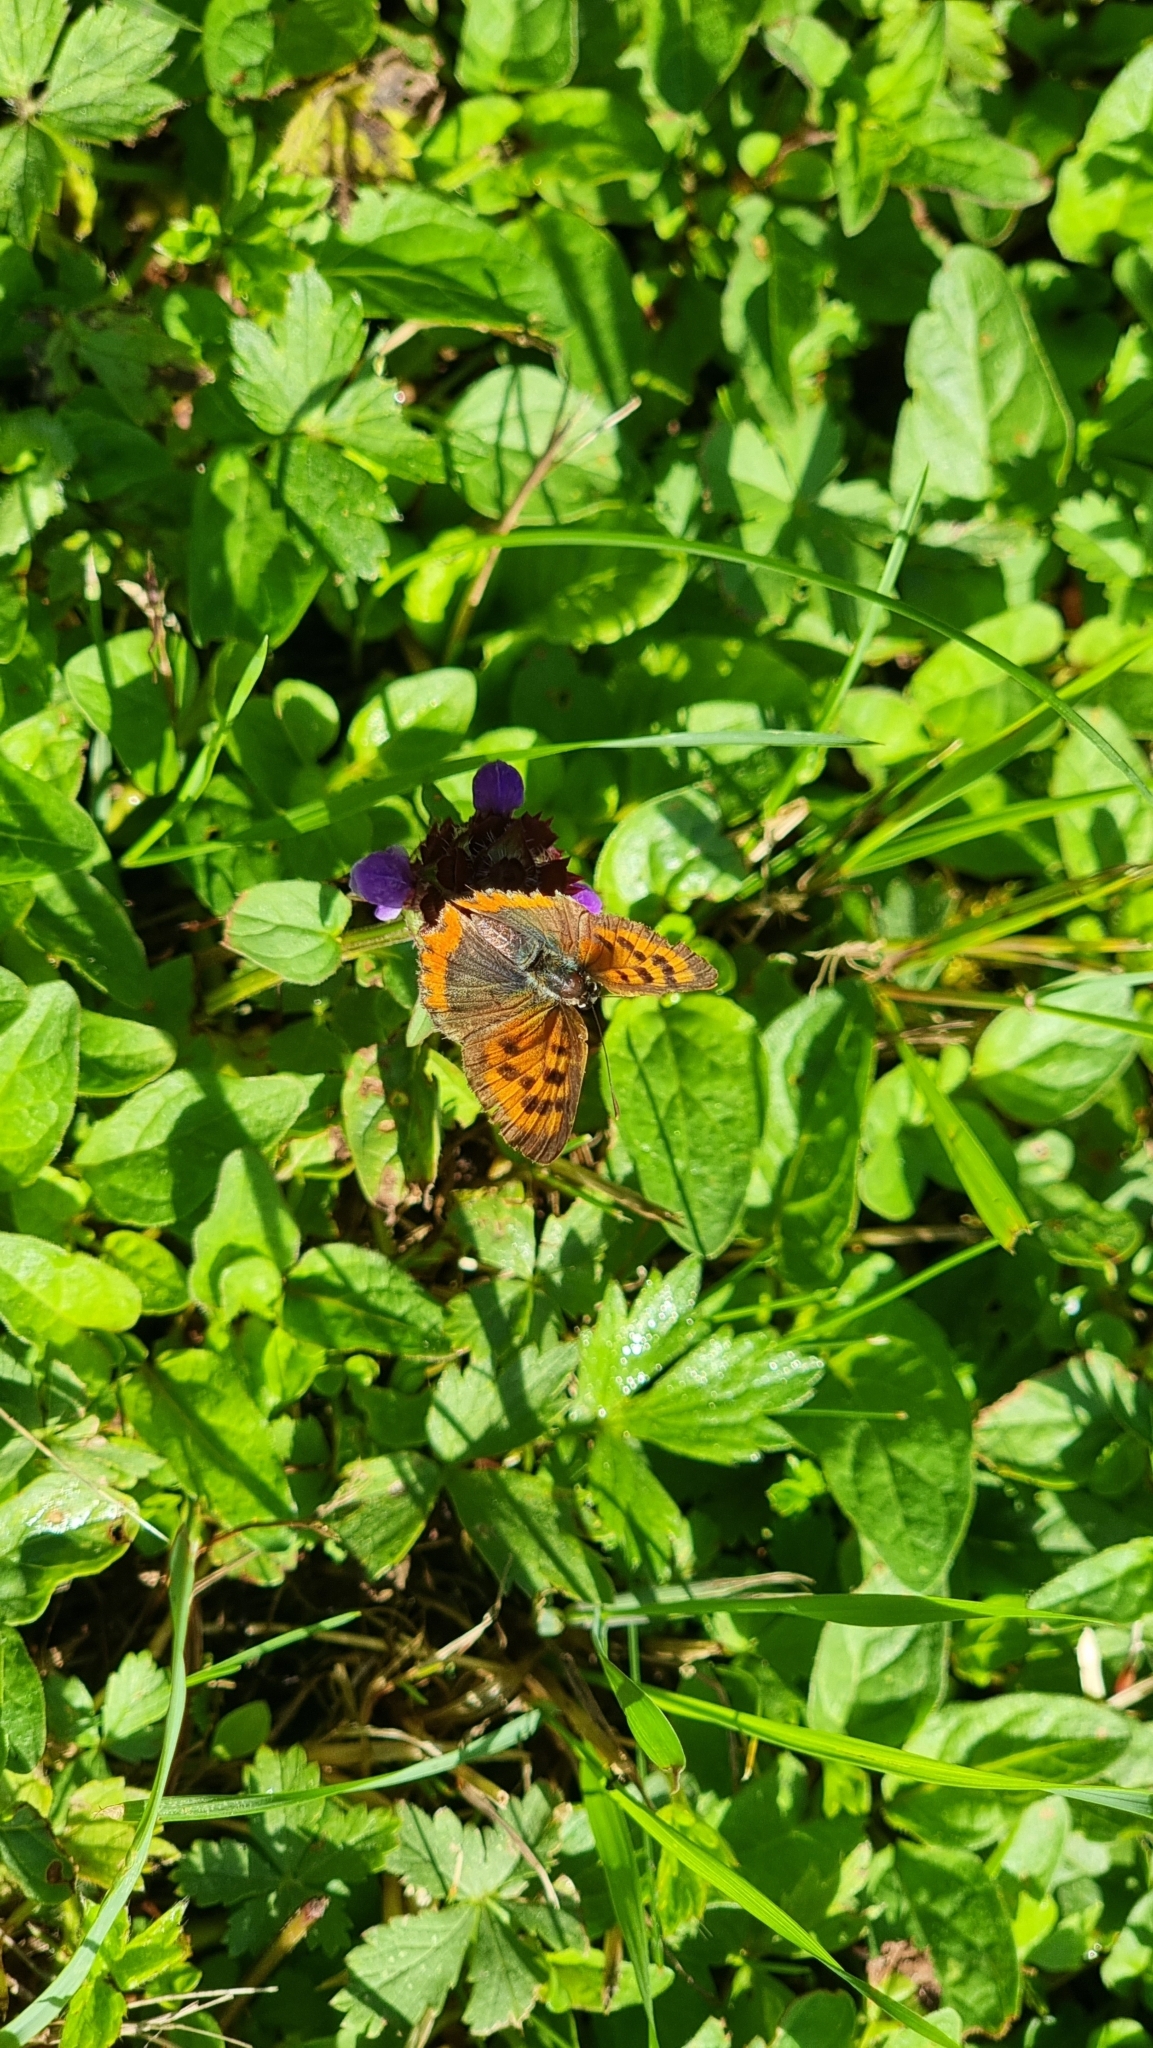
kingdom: Animalia
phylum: Arthropoda
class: Insecta
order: Lepidoptera
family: Lycaenidae
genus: Lycaena
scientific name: Lycaena phlaeas
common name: Small copper
